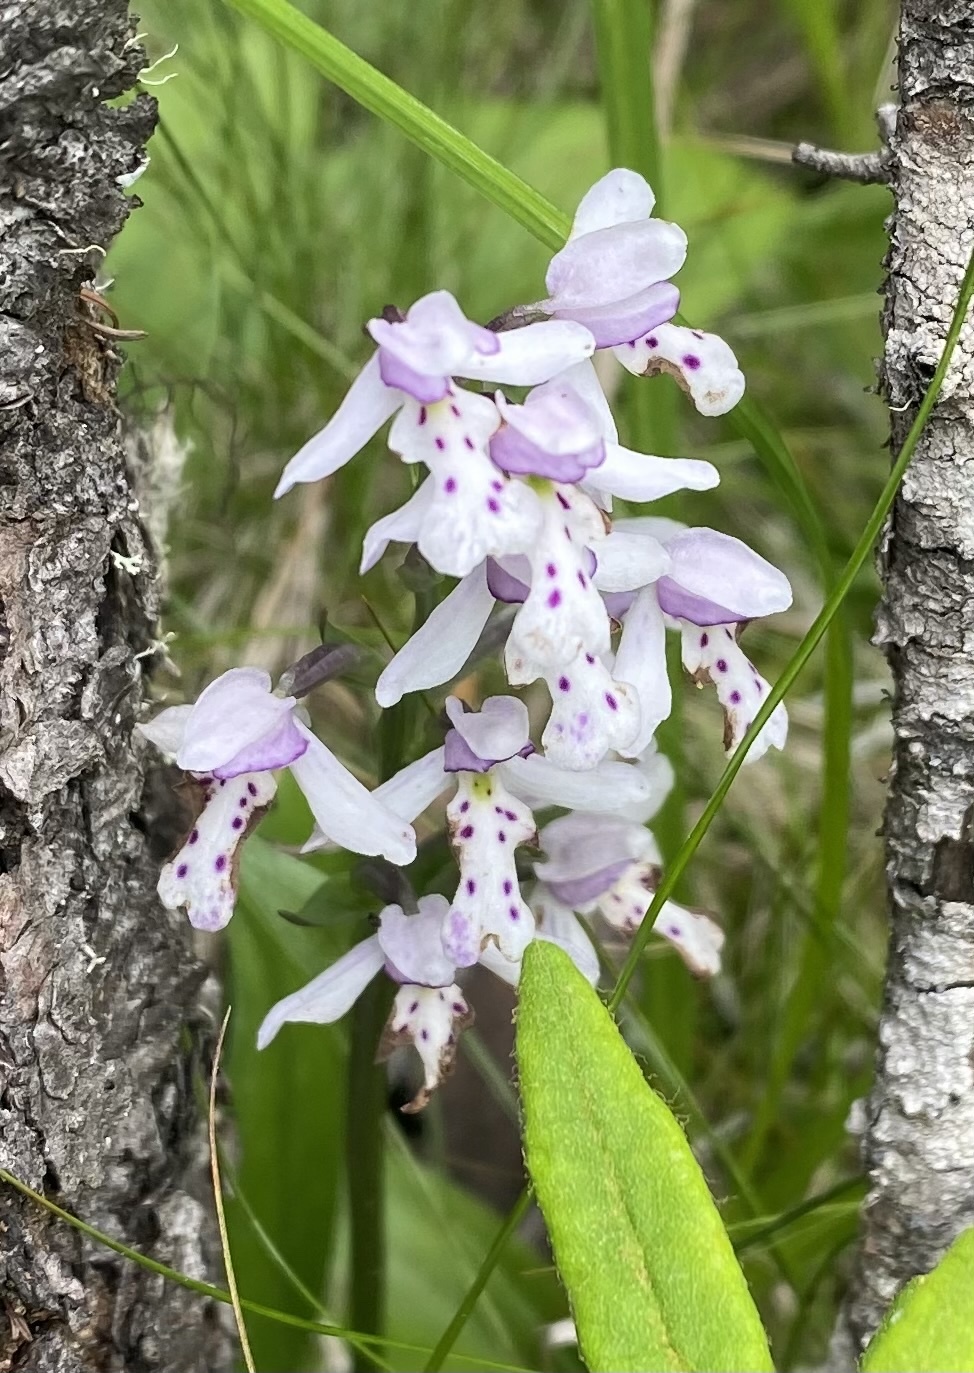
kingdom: Plantae
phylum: Tracheophyta
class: Liliopsida
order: Asparagales
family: Orchidaceae
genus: Galearis
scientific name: Galearis rotundifolia
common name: One-leaved orchis
